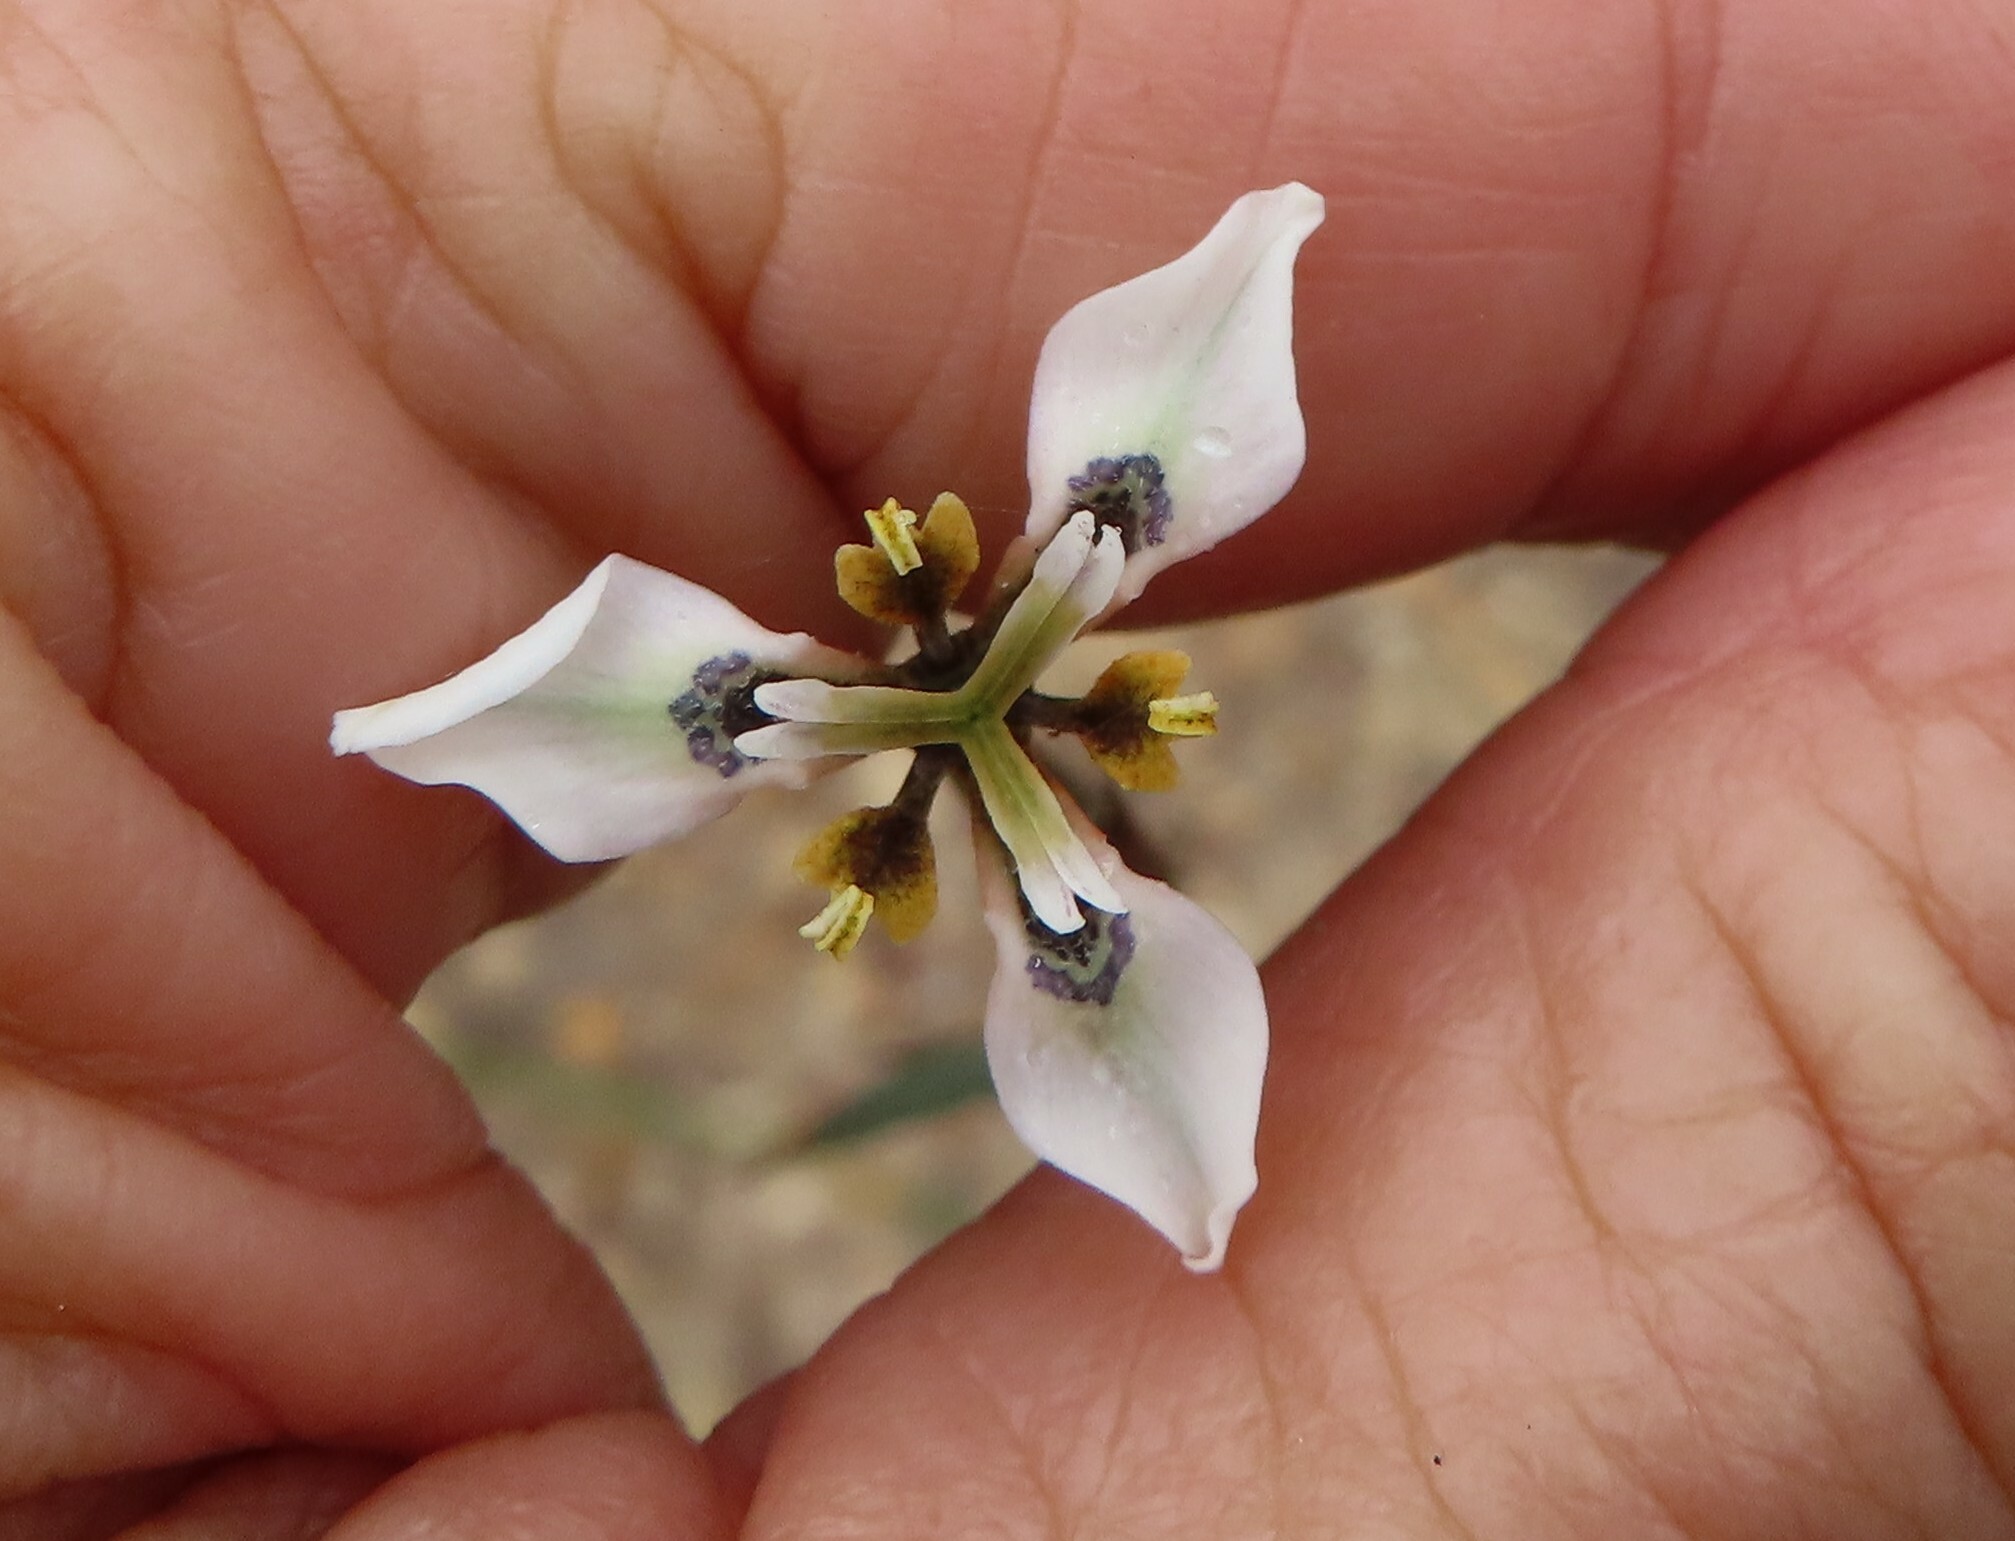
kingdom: Plantae
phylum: Tracheophyta
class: Liliopsida
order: Asparagales
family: Iridaceae
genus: Moraea
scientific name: Moraea unguiculata
